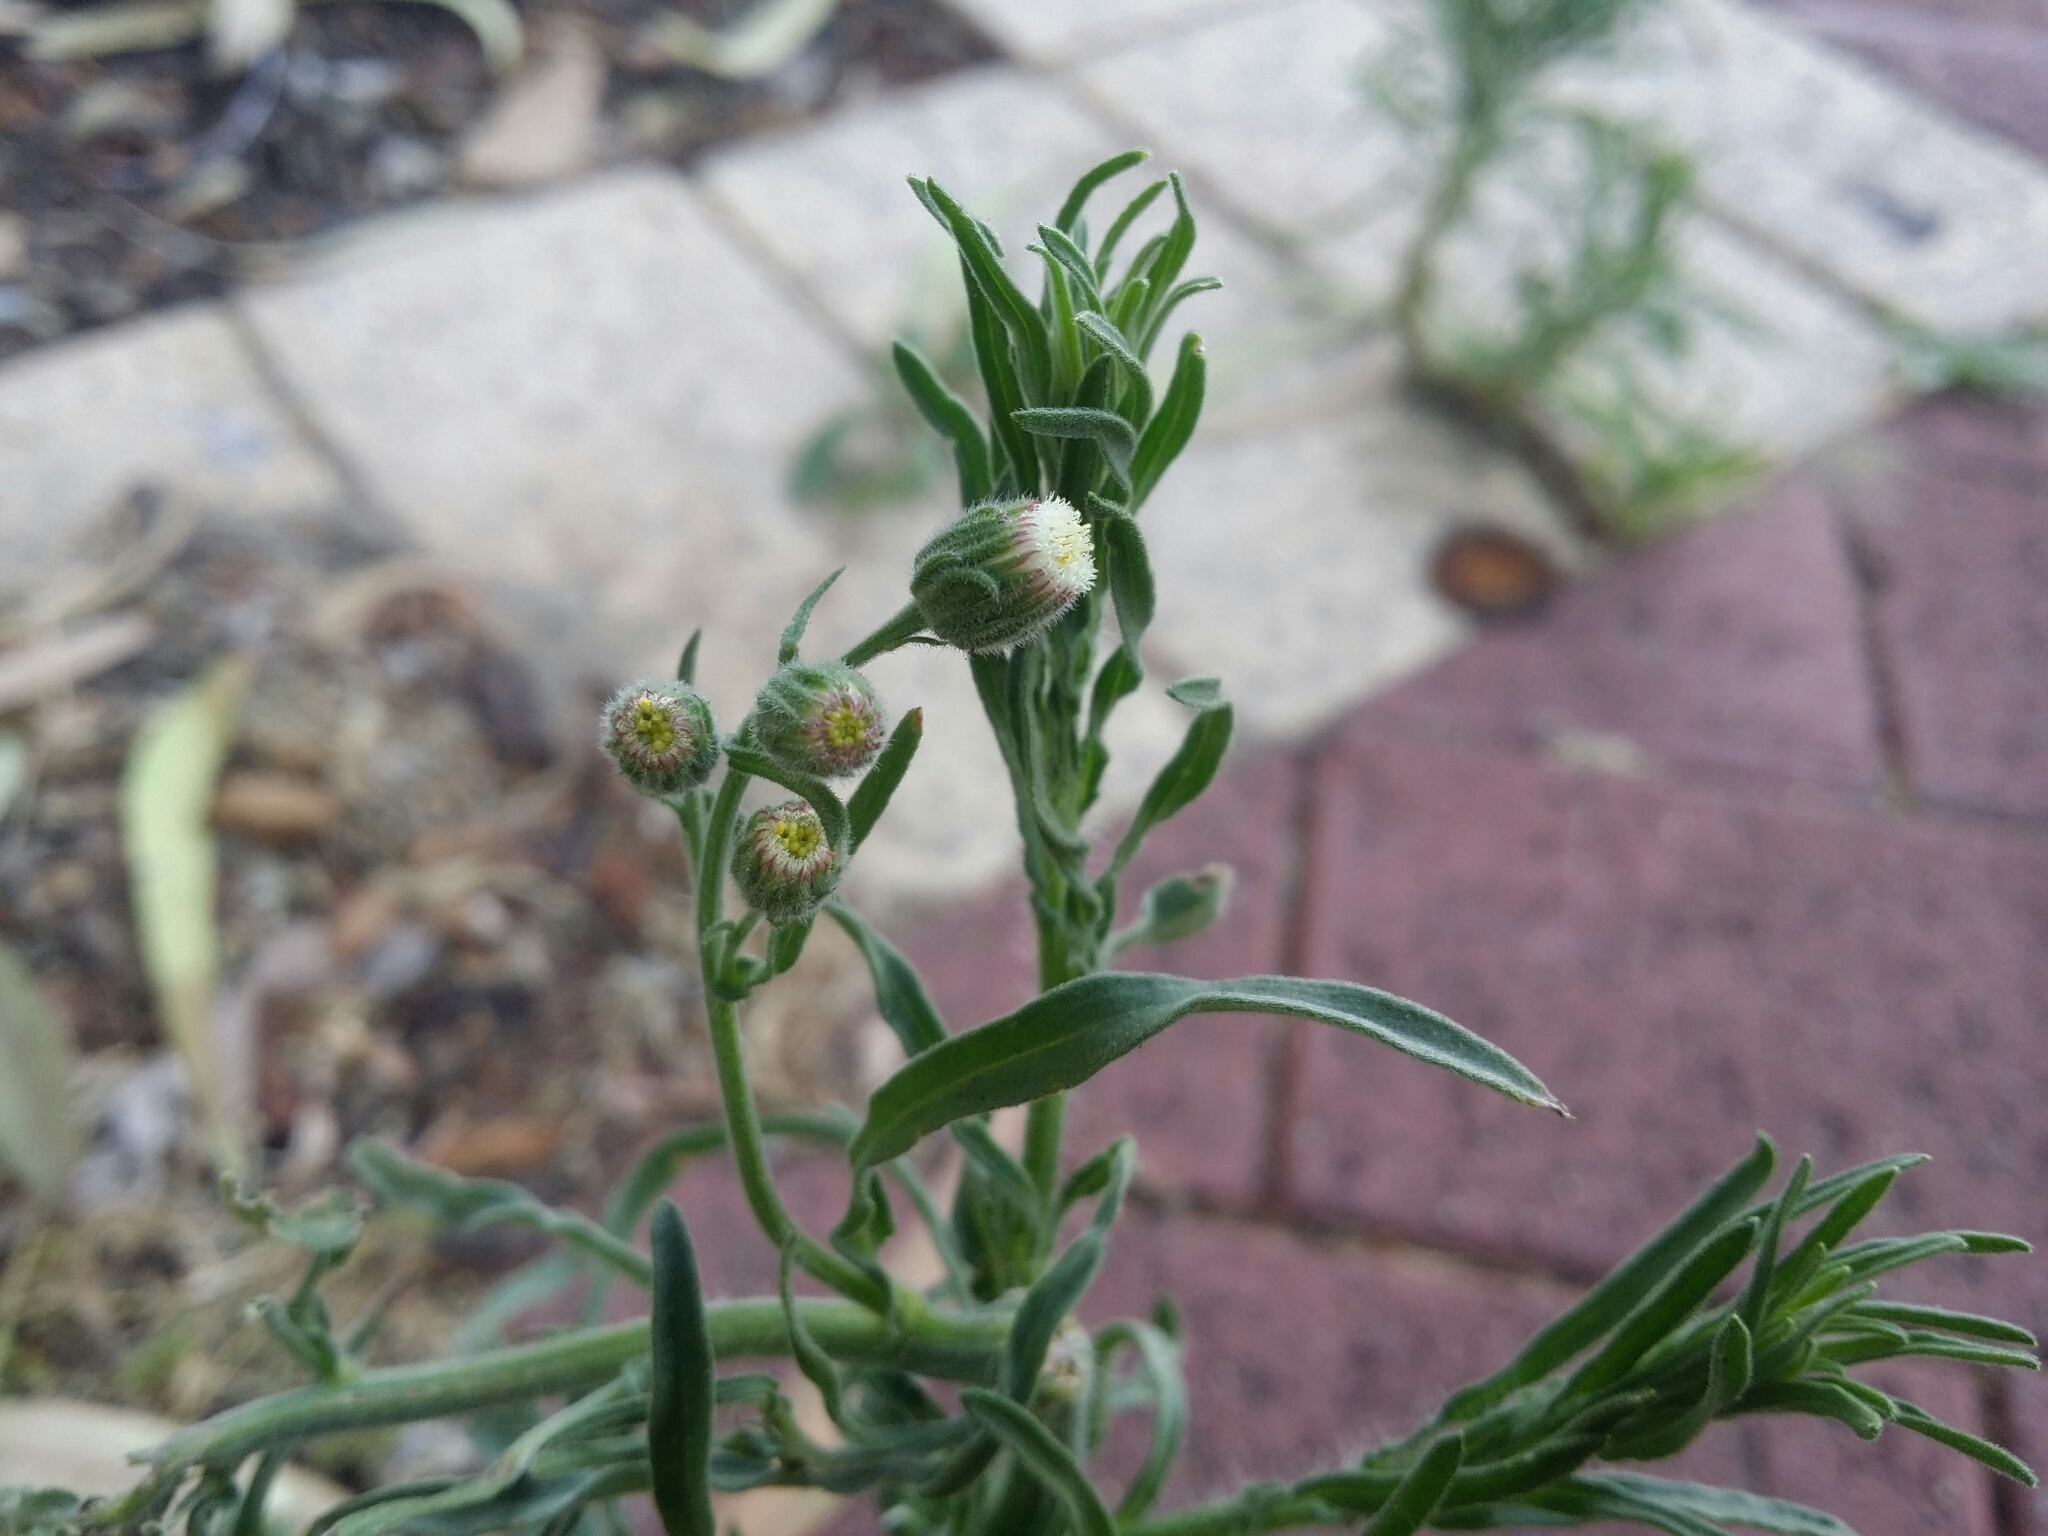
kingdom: Plantae
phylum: Tracheophyta
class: Magnoliopsida
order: Asterales
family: Asteraceae
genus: Erigeron
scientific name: Erigeron bonariensis
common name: Argentine fleabane
